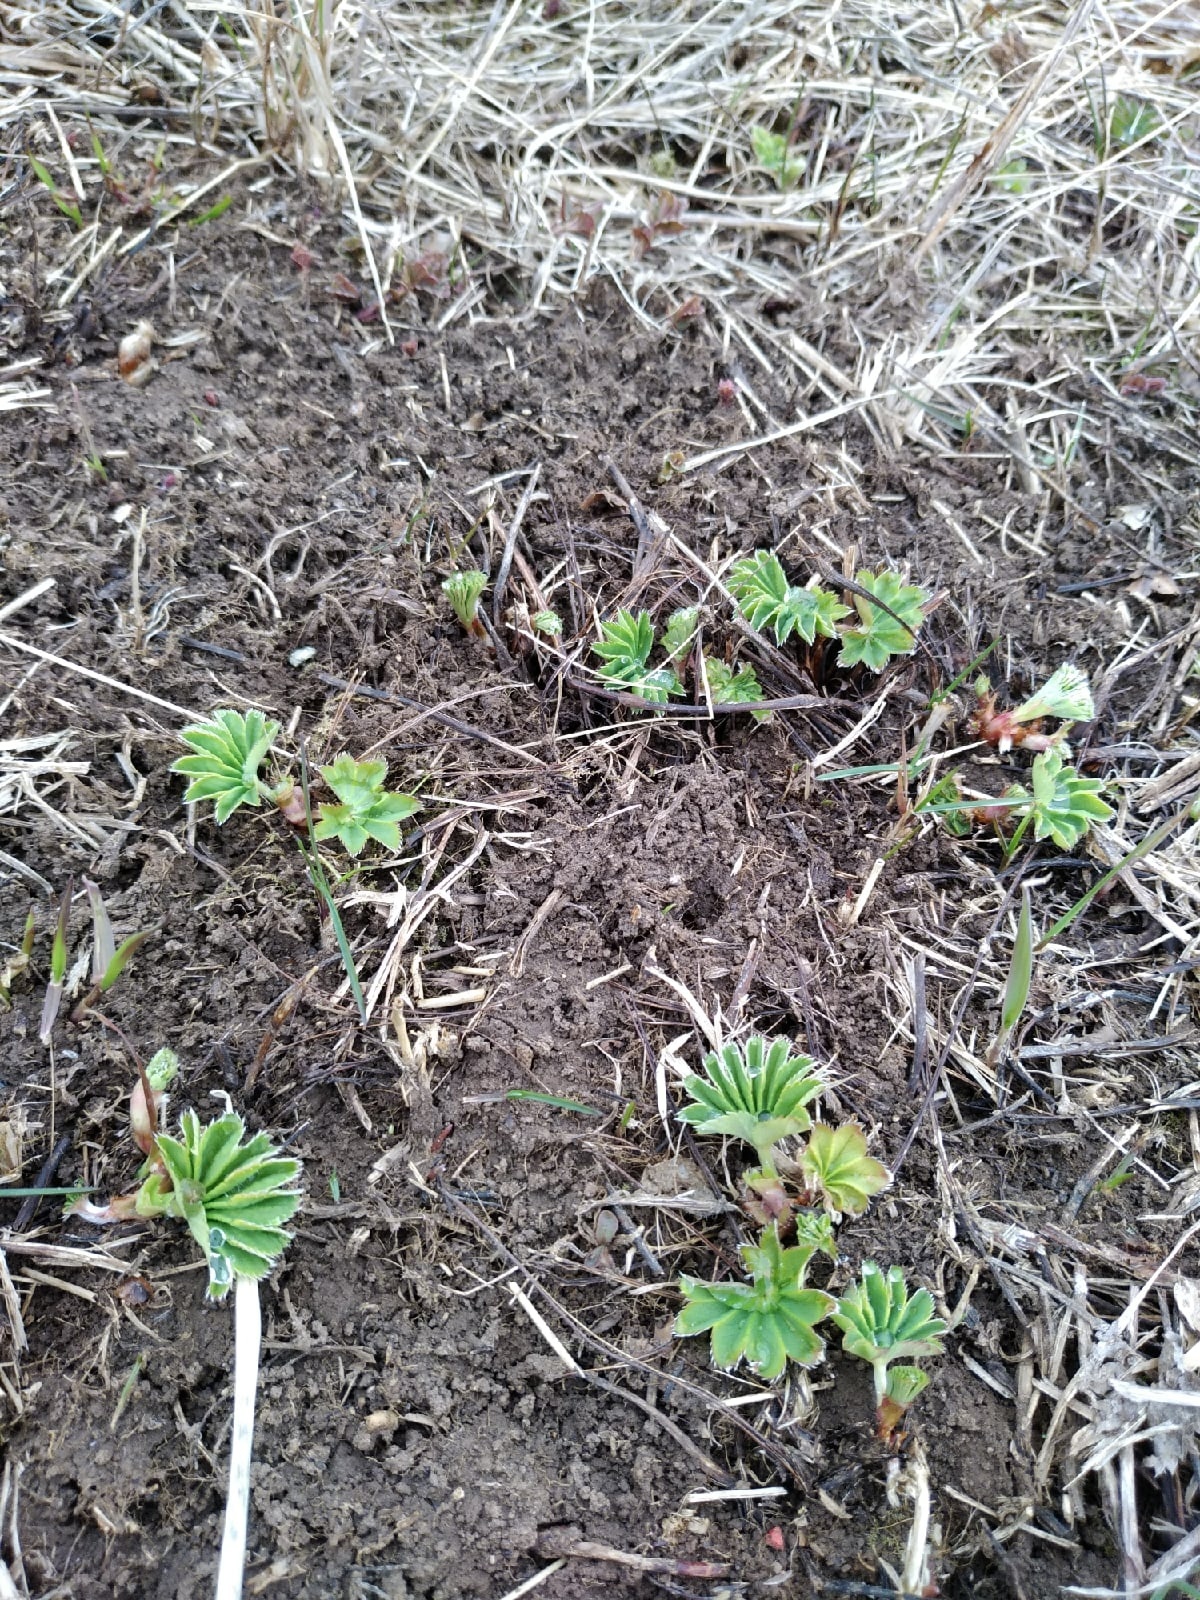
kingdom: Plantae
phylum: Tracheophyta
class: Magnoliopsida
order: Rosales
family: Rosaceae
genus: Alchemilla
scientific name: Alchemilla
